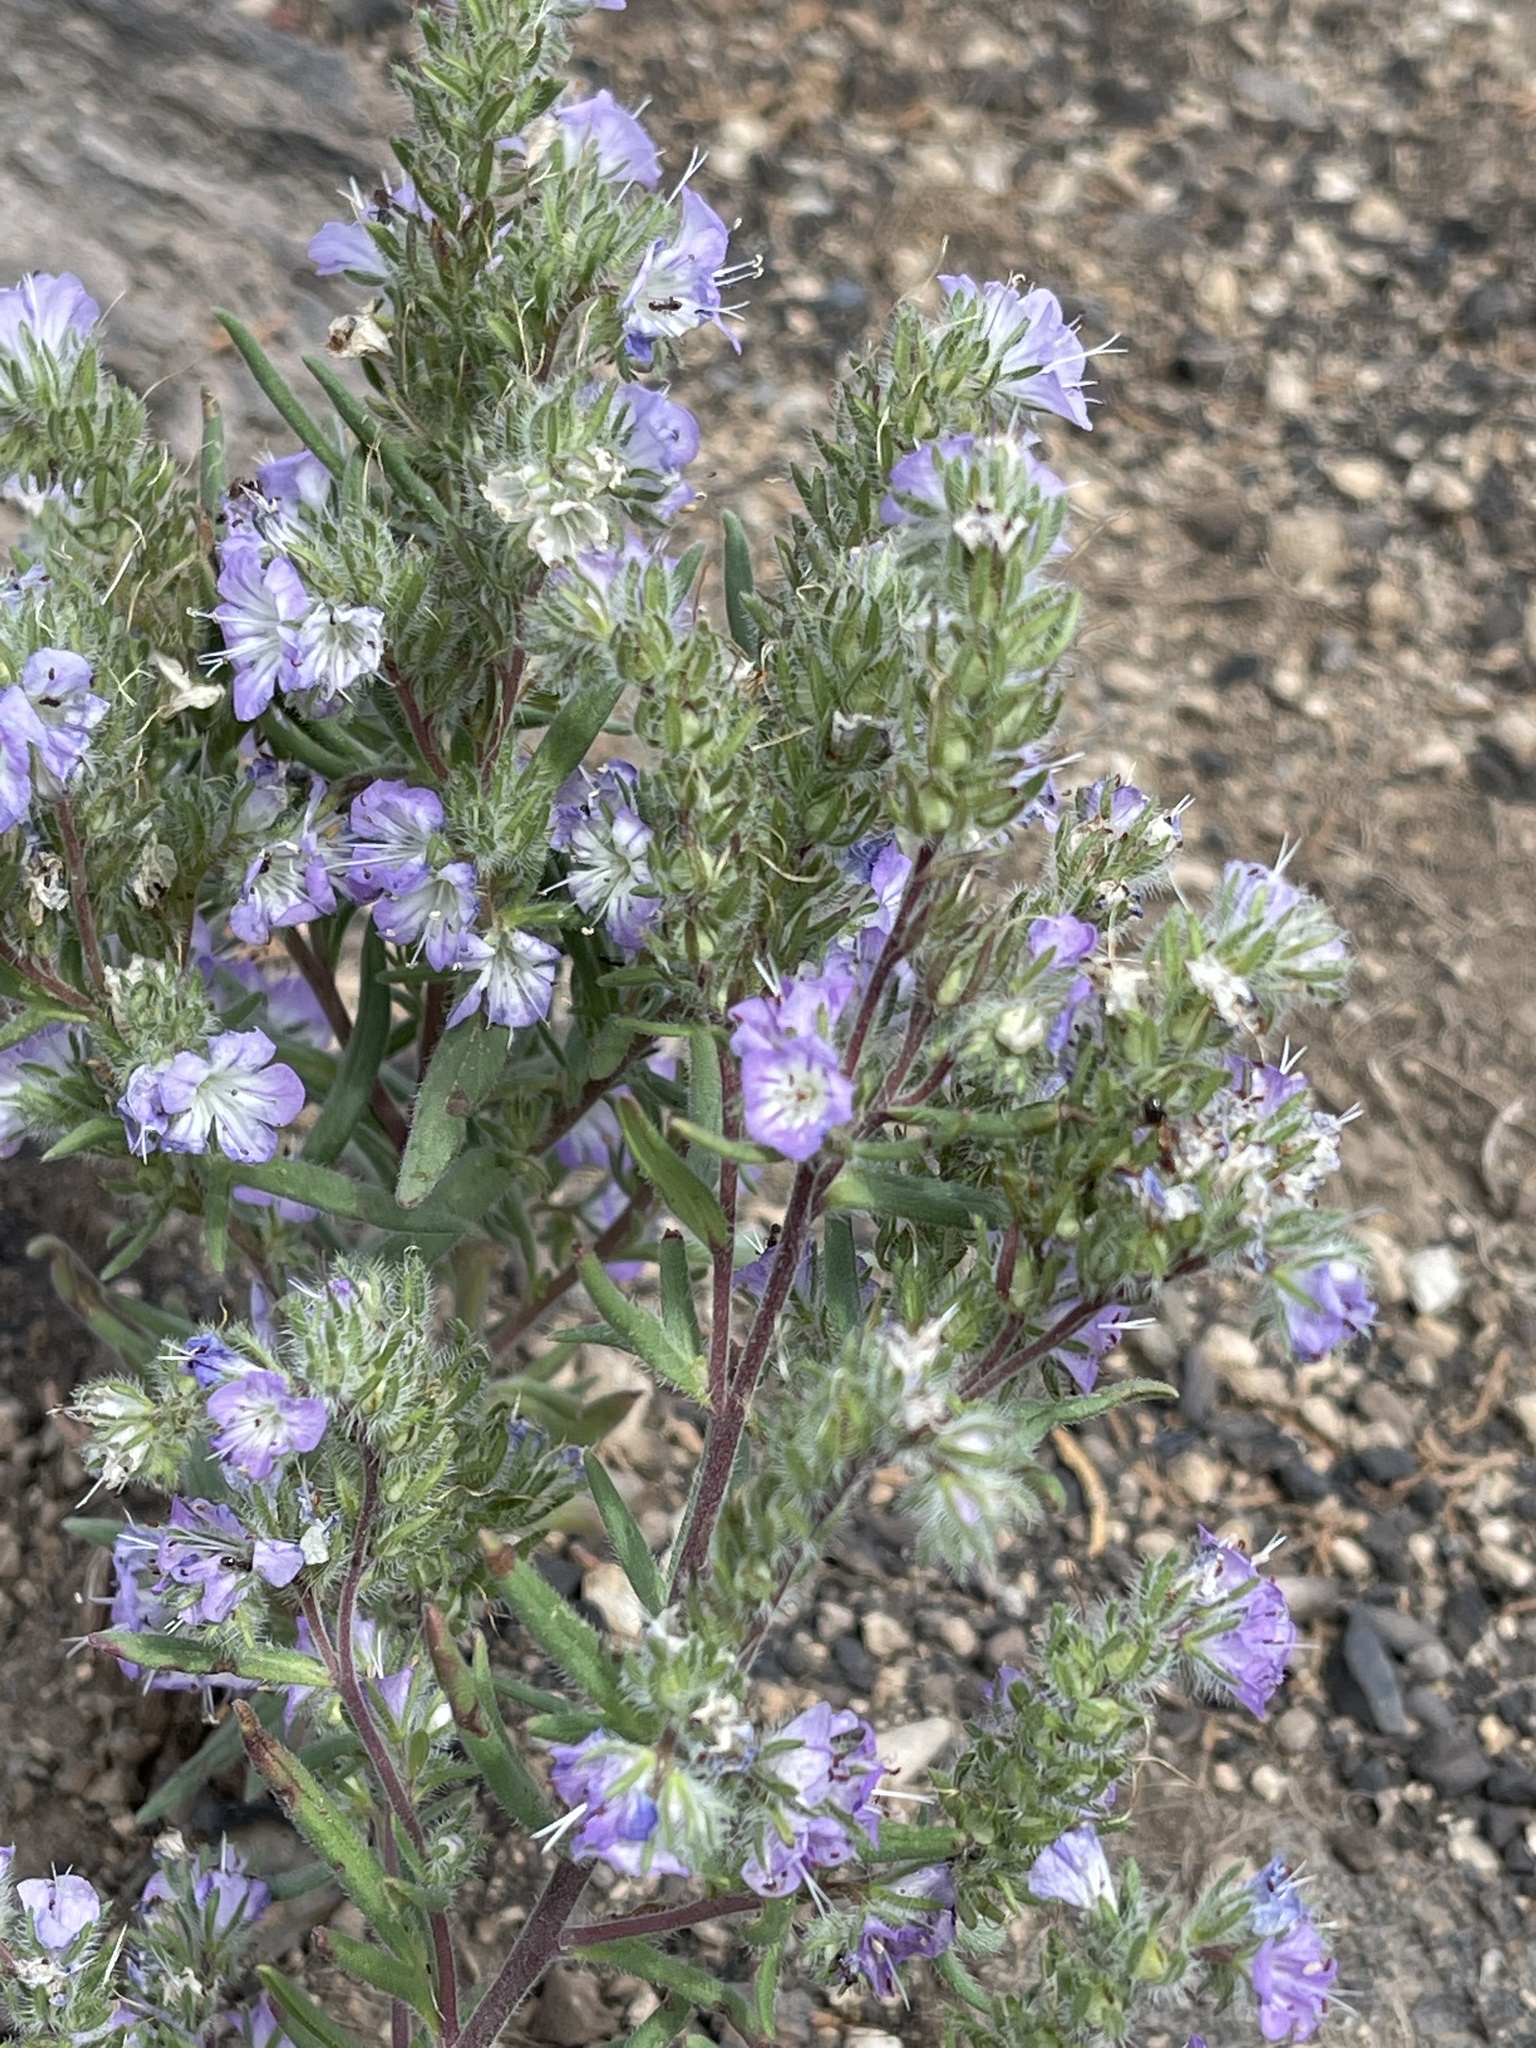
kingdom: Plantae
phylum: Tracheophyta
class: Magnoliopsida
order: Boraginales
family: Hydrophyllaceae
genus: Phacelia
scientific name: Phacelia linearis
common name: Linear-leaved phacelia
